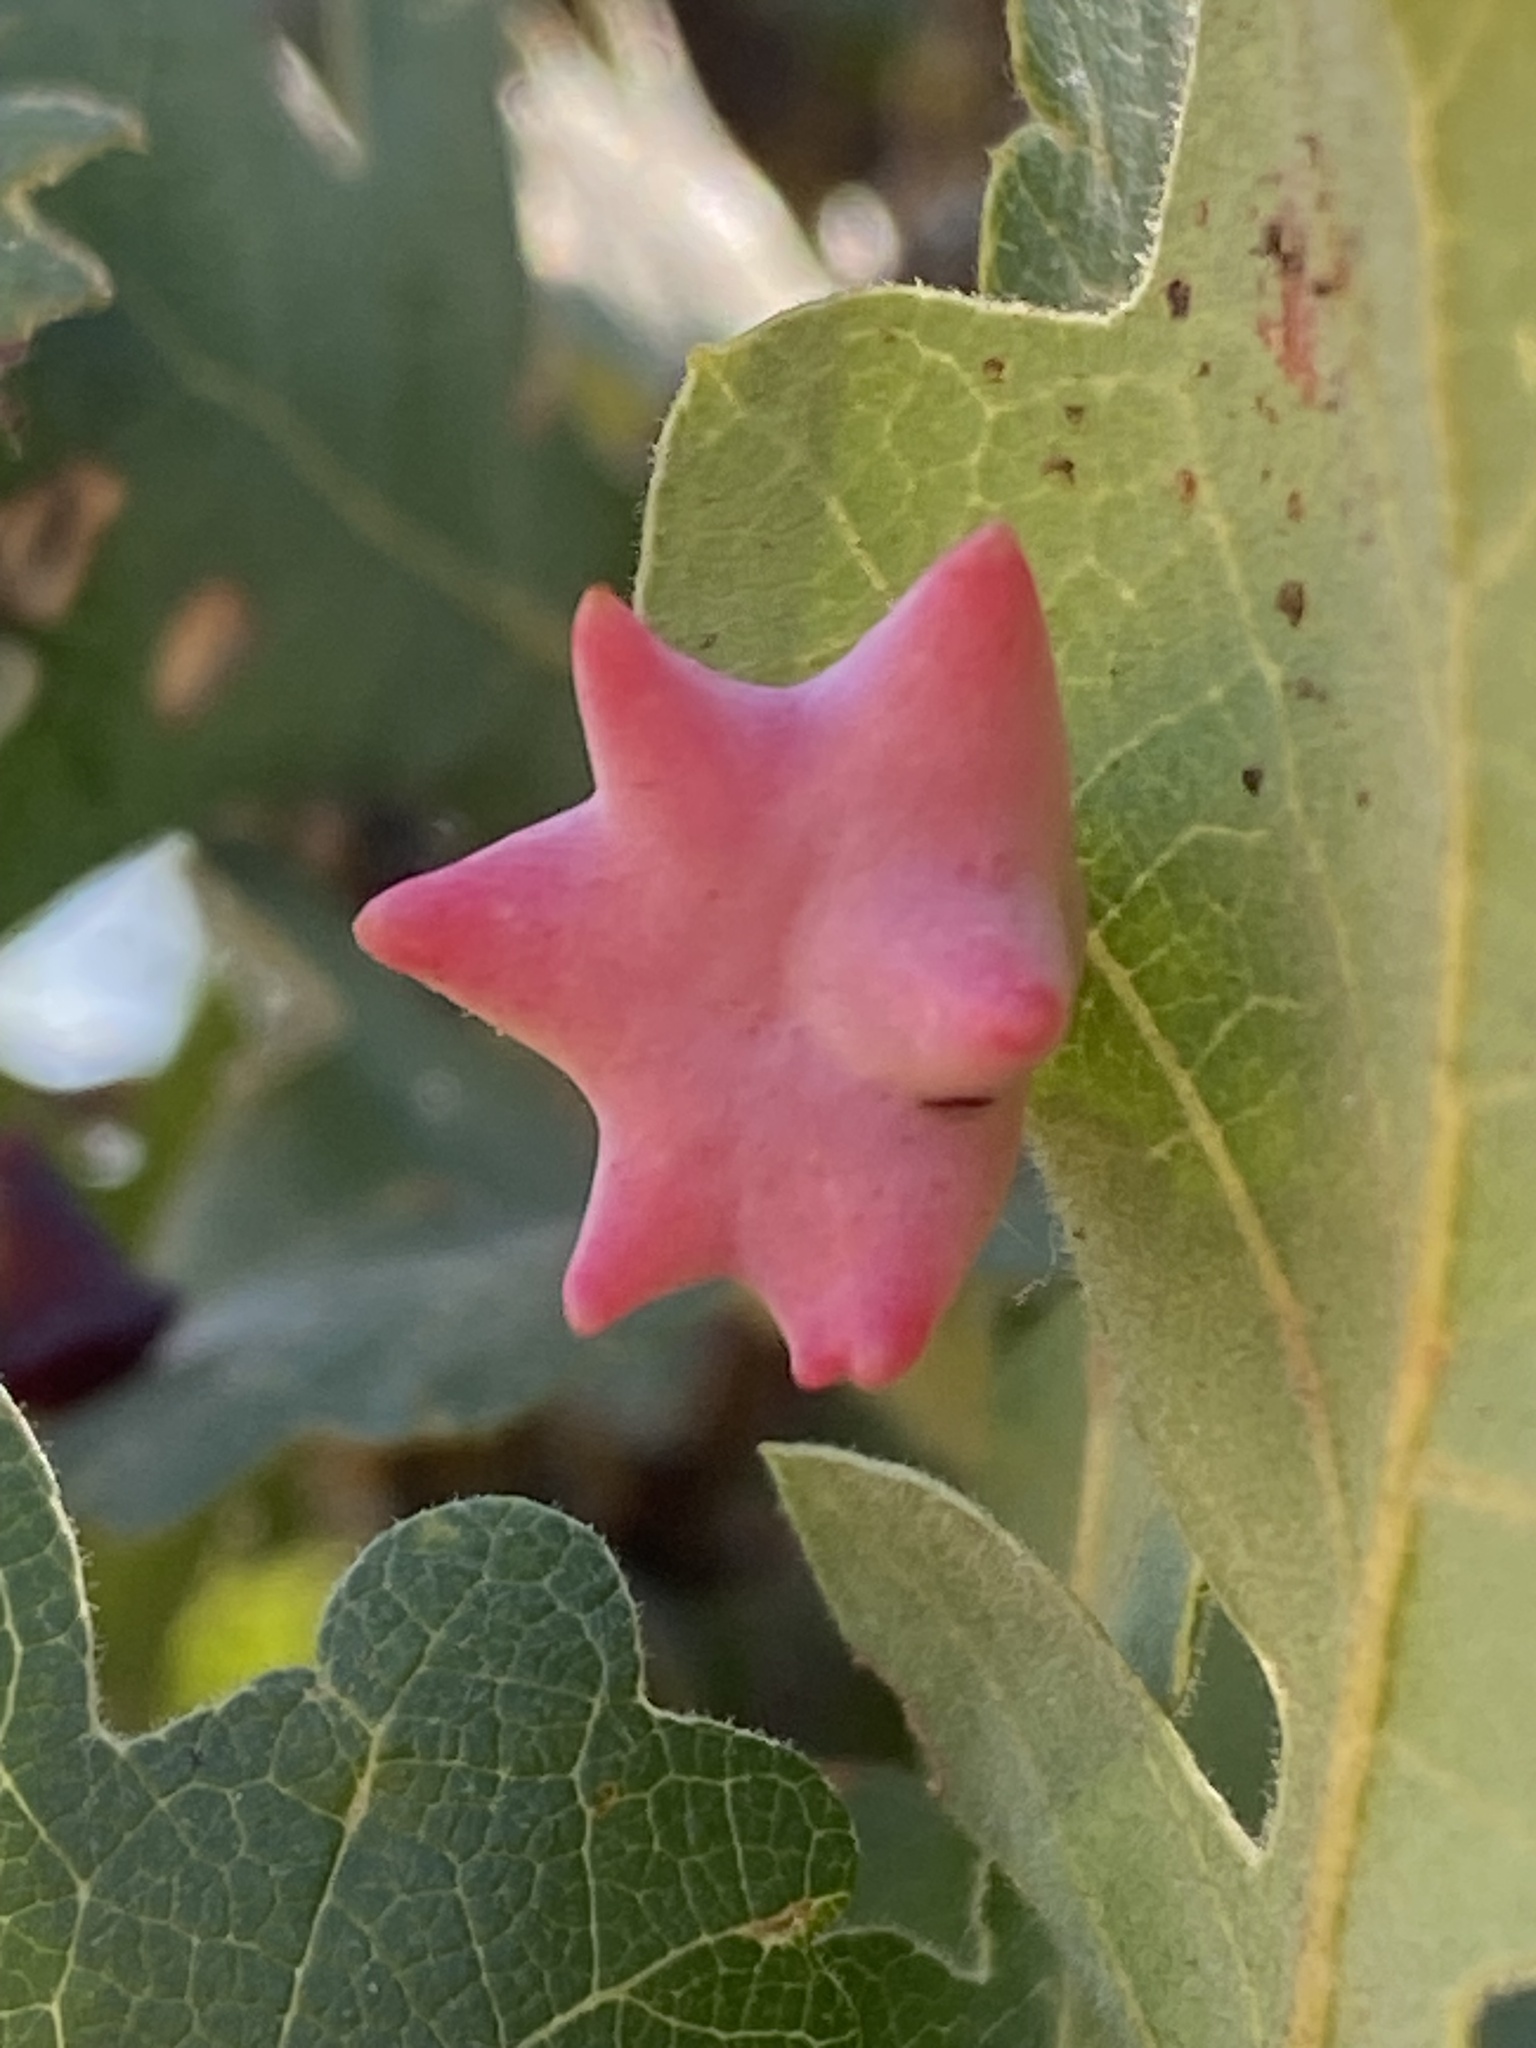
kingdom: Animalia
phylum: Arthropoda
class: Insecta
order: Hymenoptera
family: Cynipidae
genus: Cynips
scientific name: Cynips douglasi
